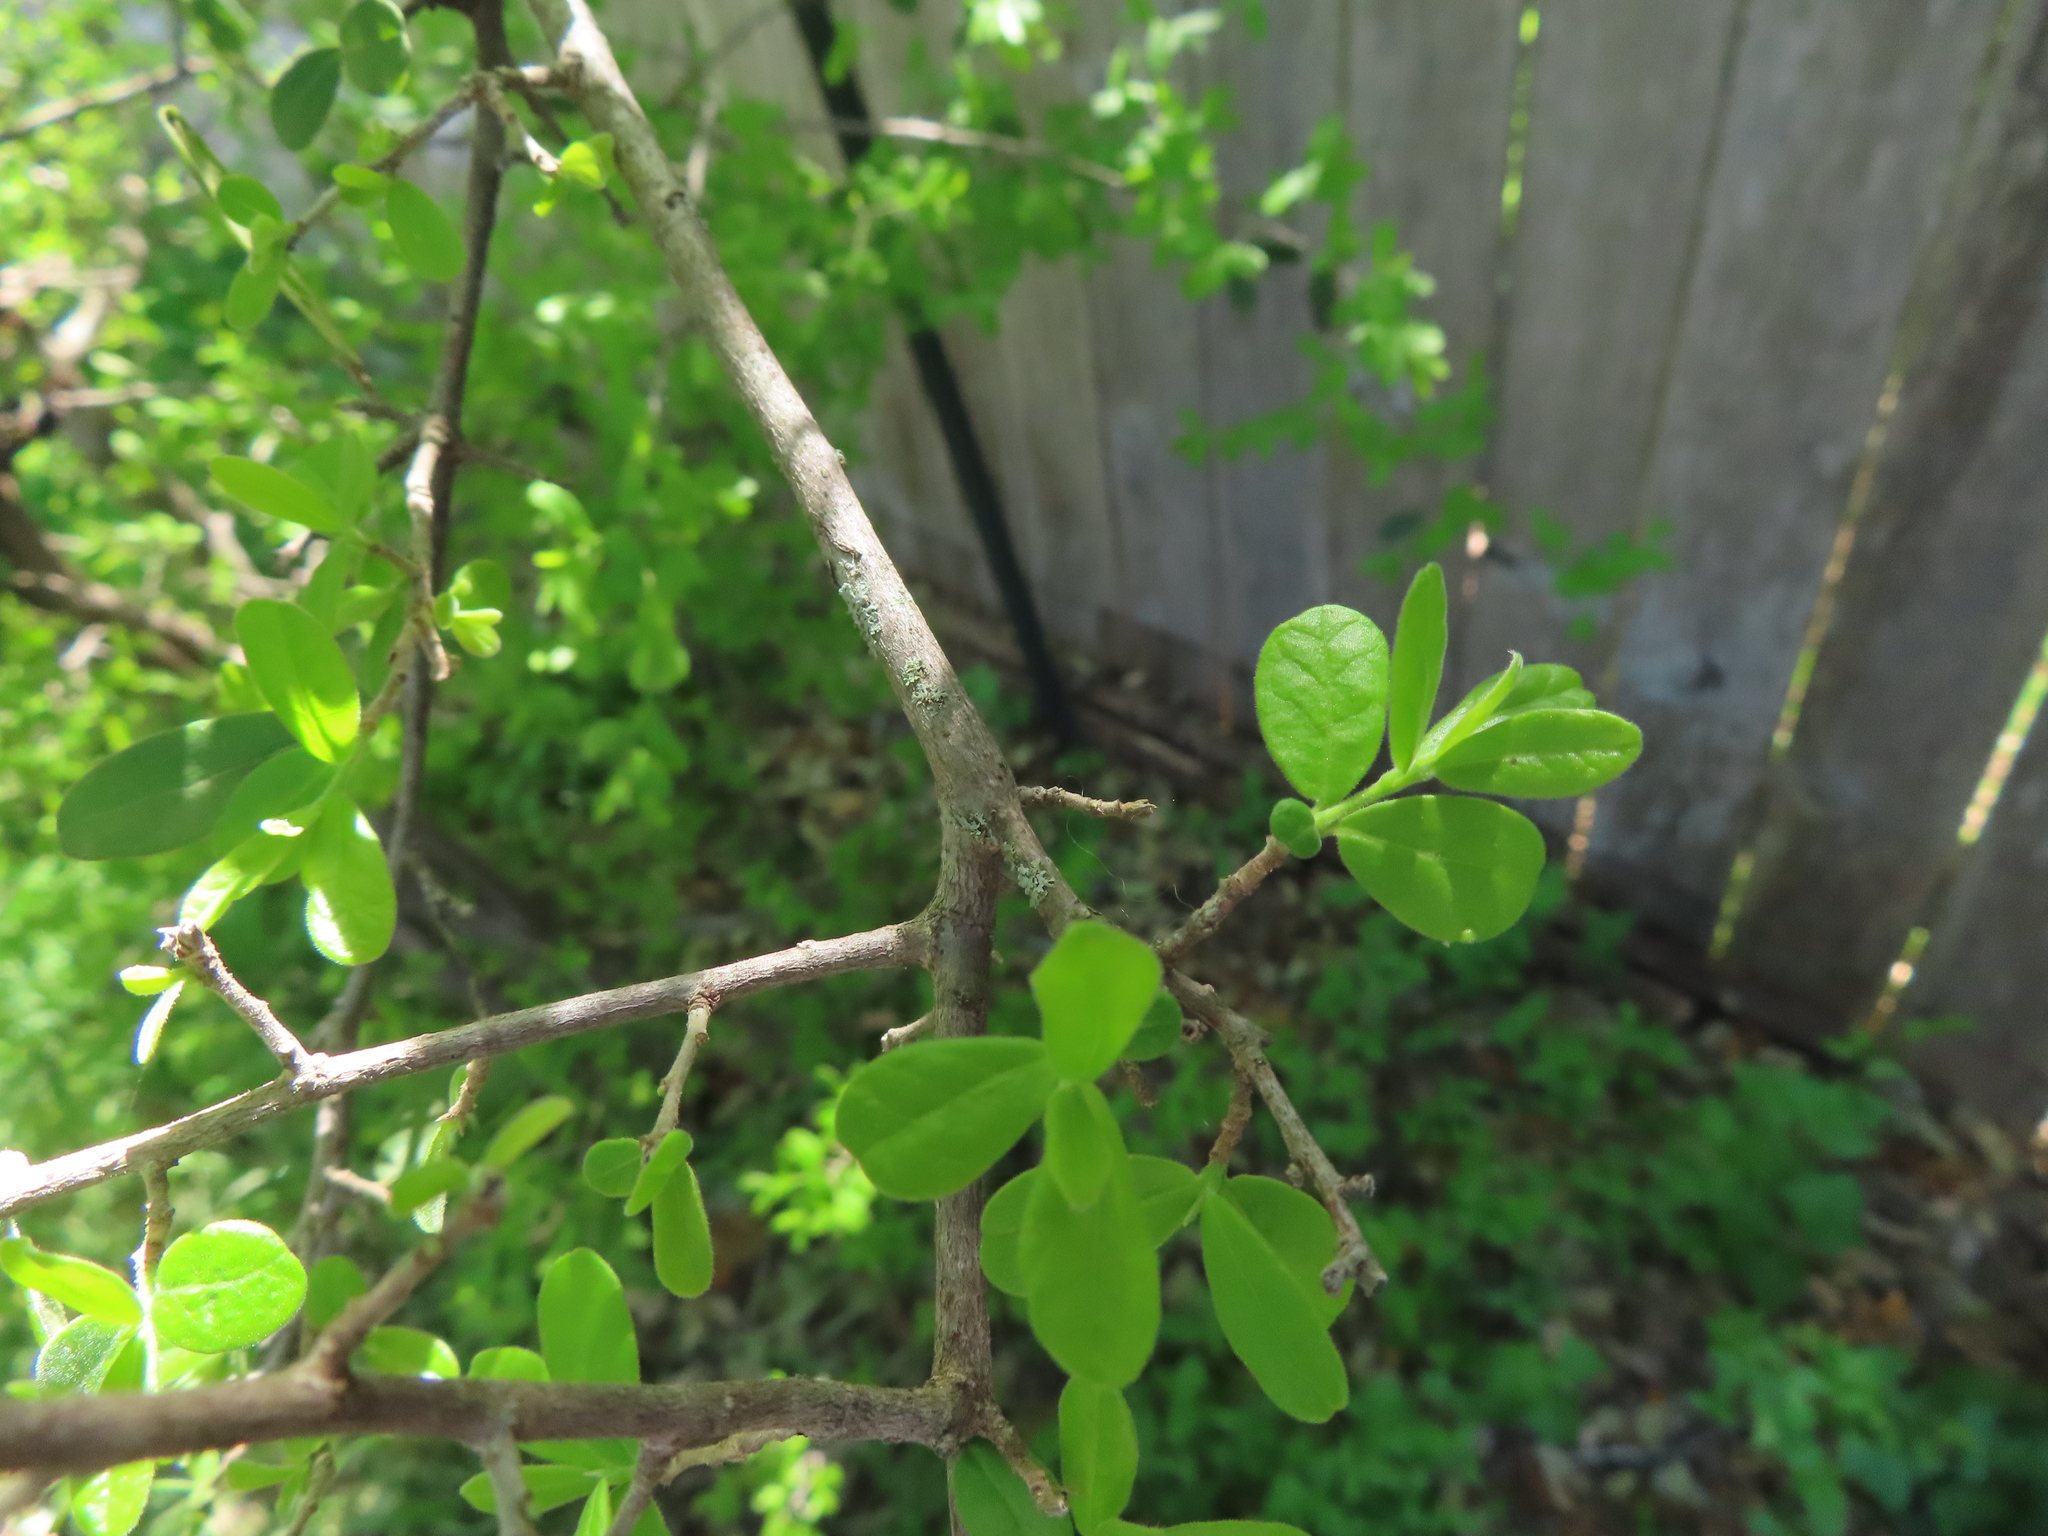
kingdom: Plantae
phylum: Tracheophyta
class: Magnoliopsida
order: Ericales
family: Ebenaceae
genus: Diospyros
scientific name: Diospyros texana
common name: Texas persimmon
